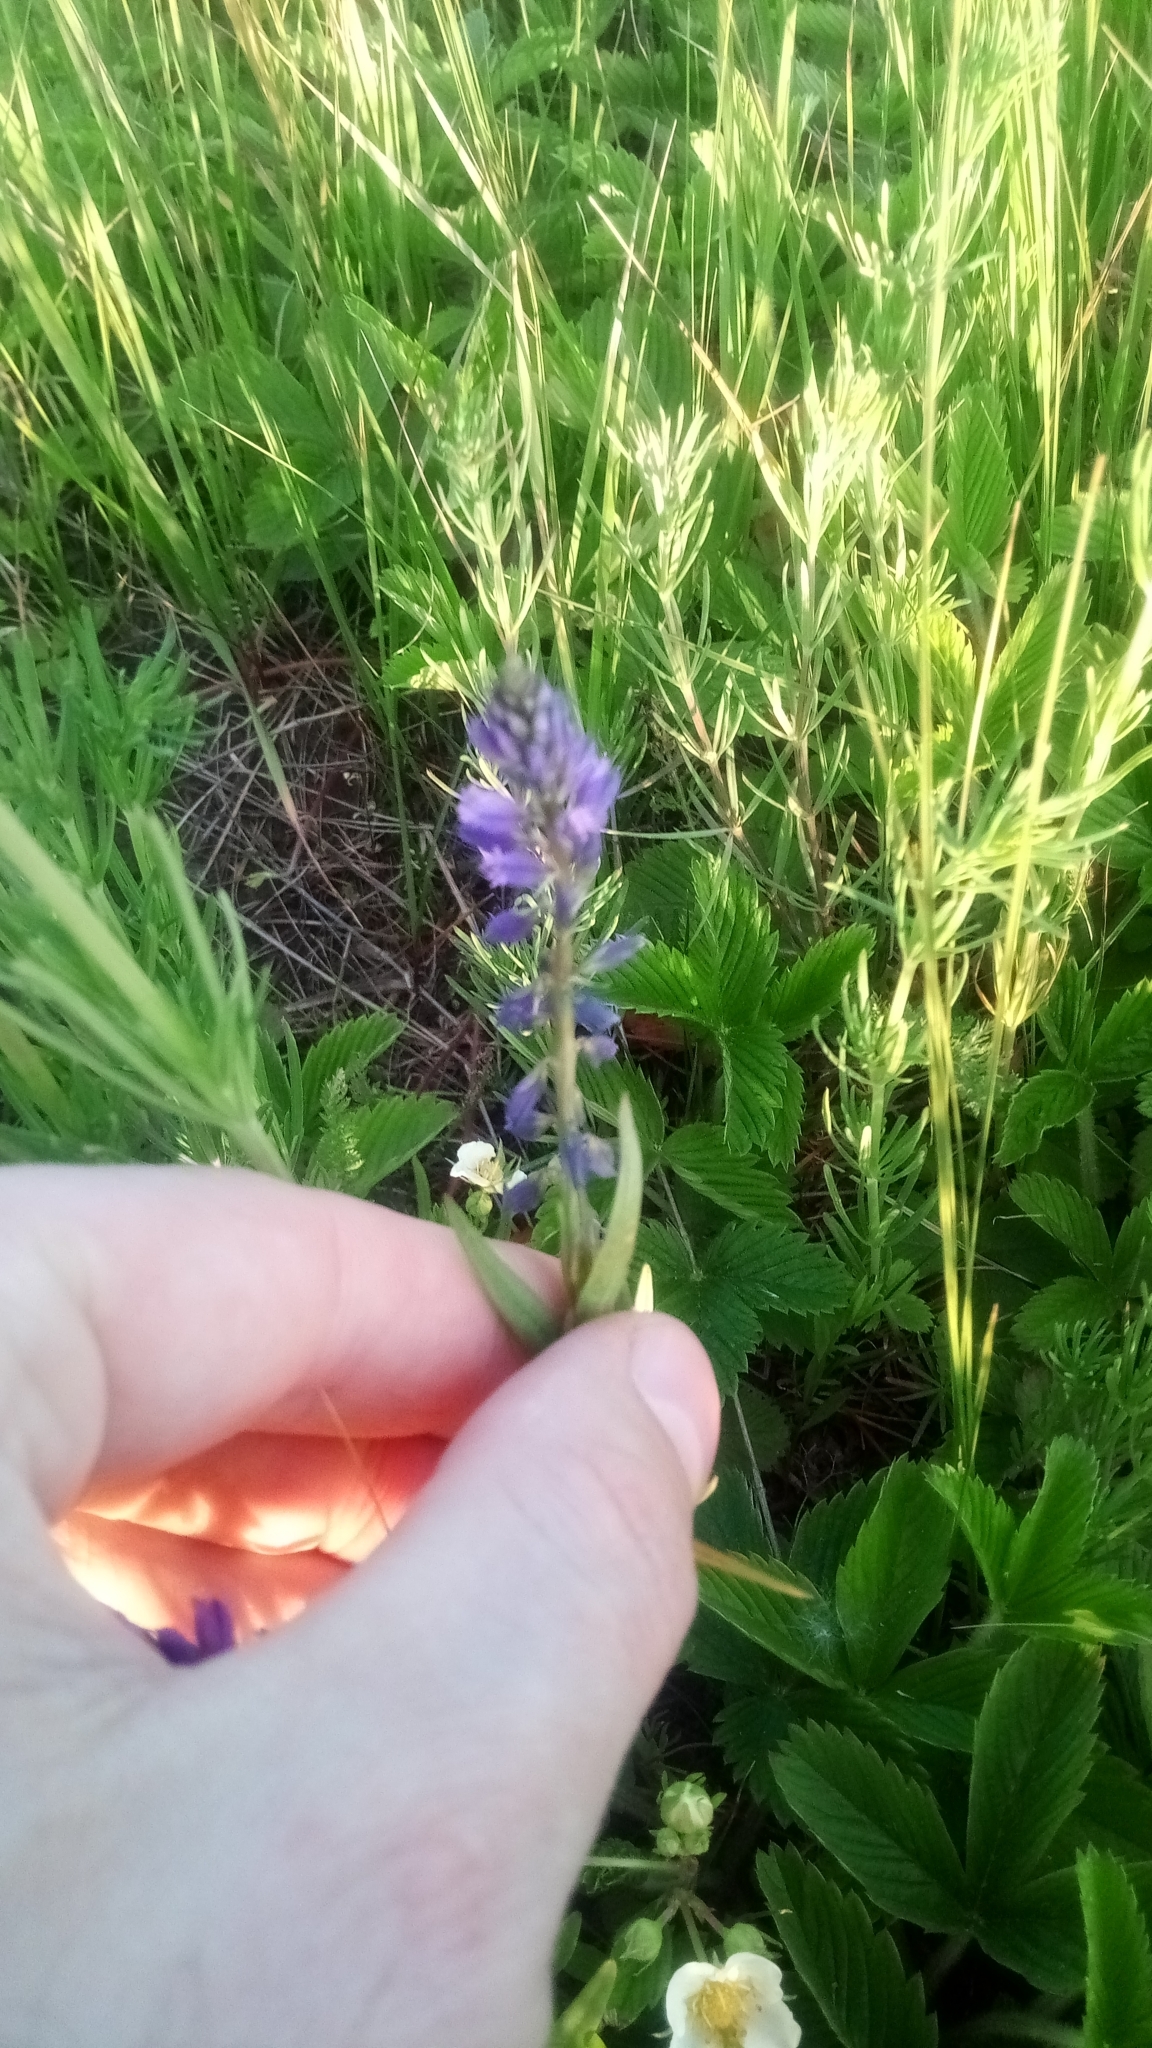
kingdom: Plantae
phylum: Tracheophyta
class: Magnoliopsida
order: Fabales
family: Polygalaceae
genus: Polygala
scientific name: Polygala comosa
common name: Tufted milkwort
